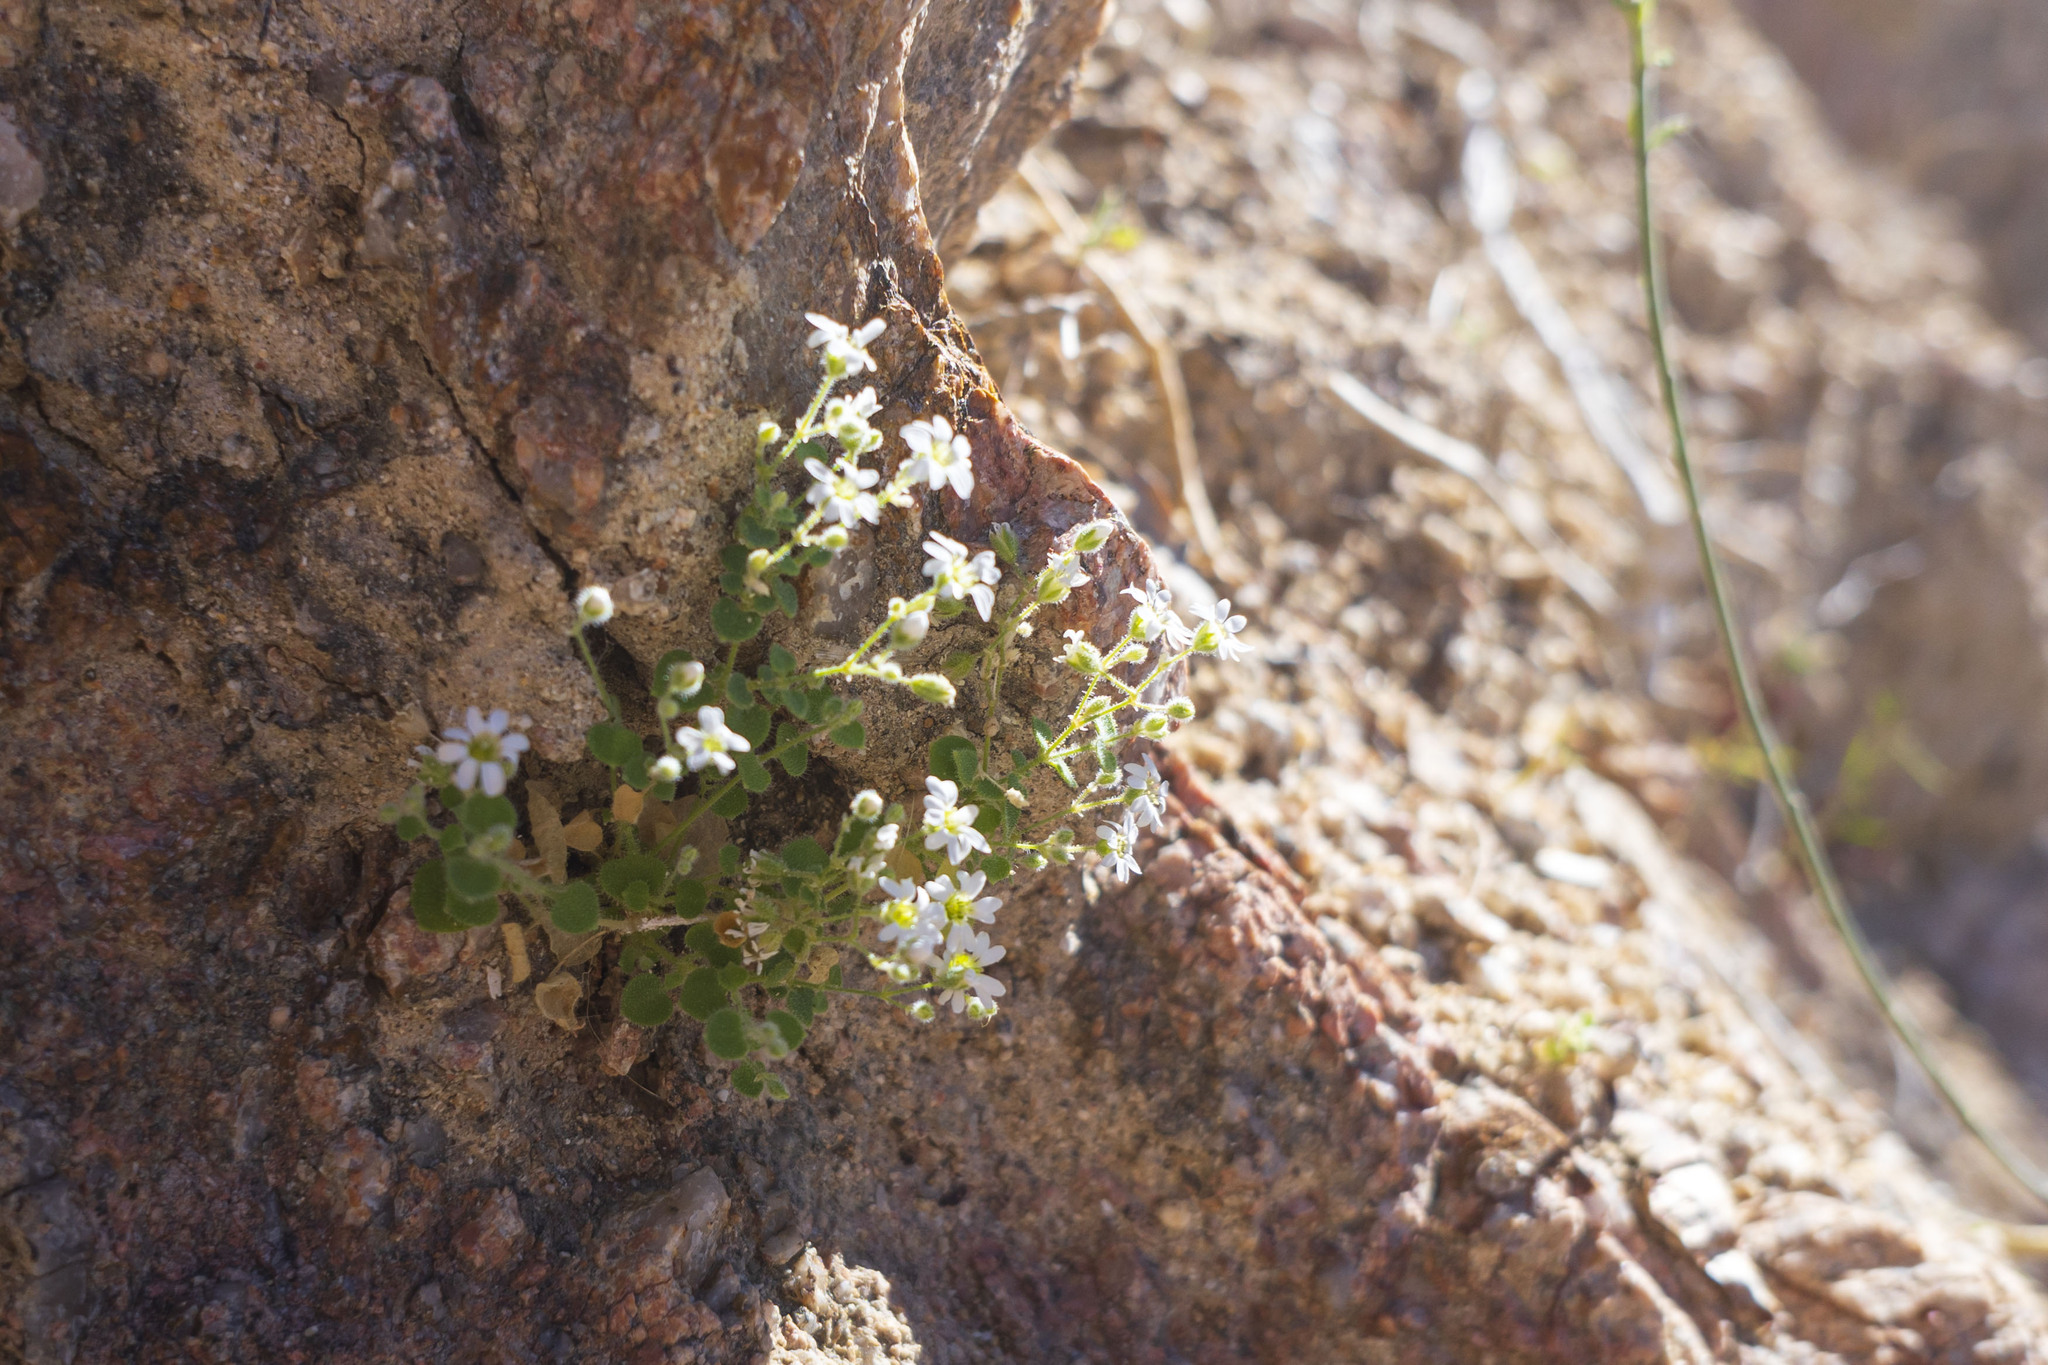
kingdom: Plantae
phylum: Tracheophyta
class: Magnoliopsida
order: Caryophyllales
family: Caryophyllaceae
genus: Drymaria
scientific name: Drymaria debilis
